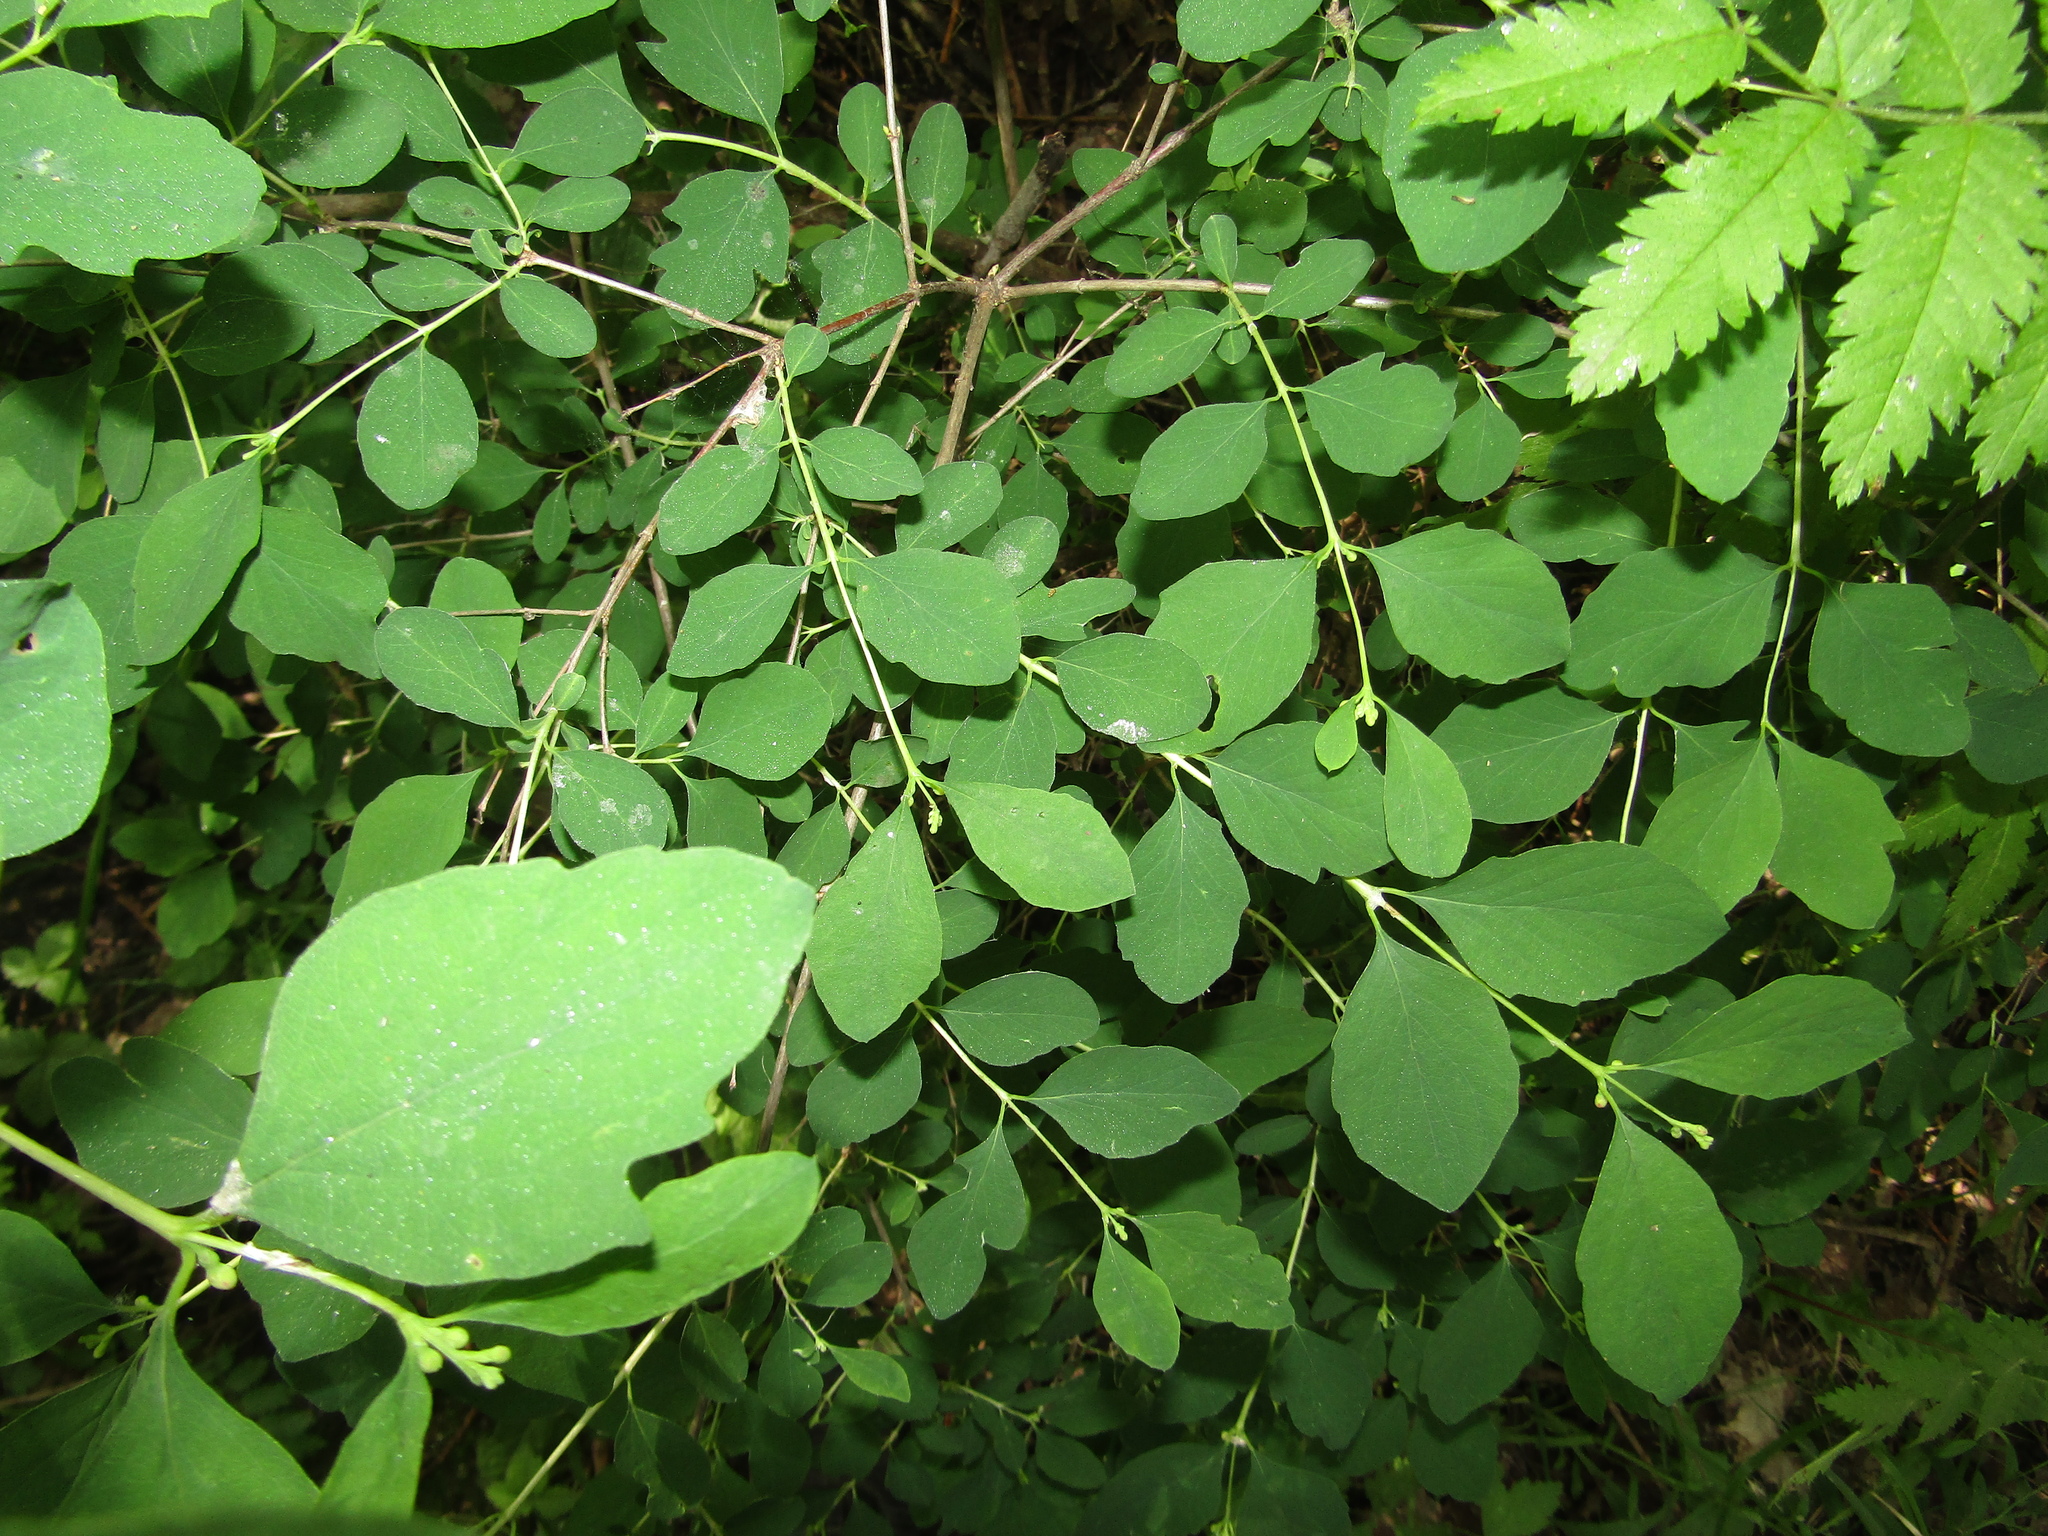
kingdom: Plantae
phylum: Tracheophyta
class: Magnoliopsida
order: Dipsacales
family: Caprifoliaceae
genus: Symphoricarpos
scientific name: Symphoricarpos albus
